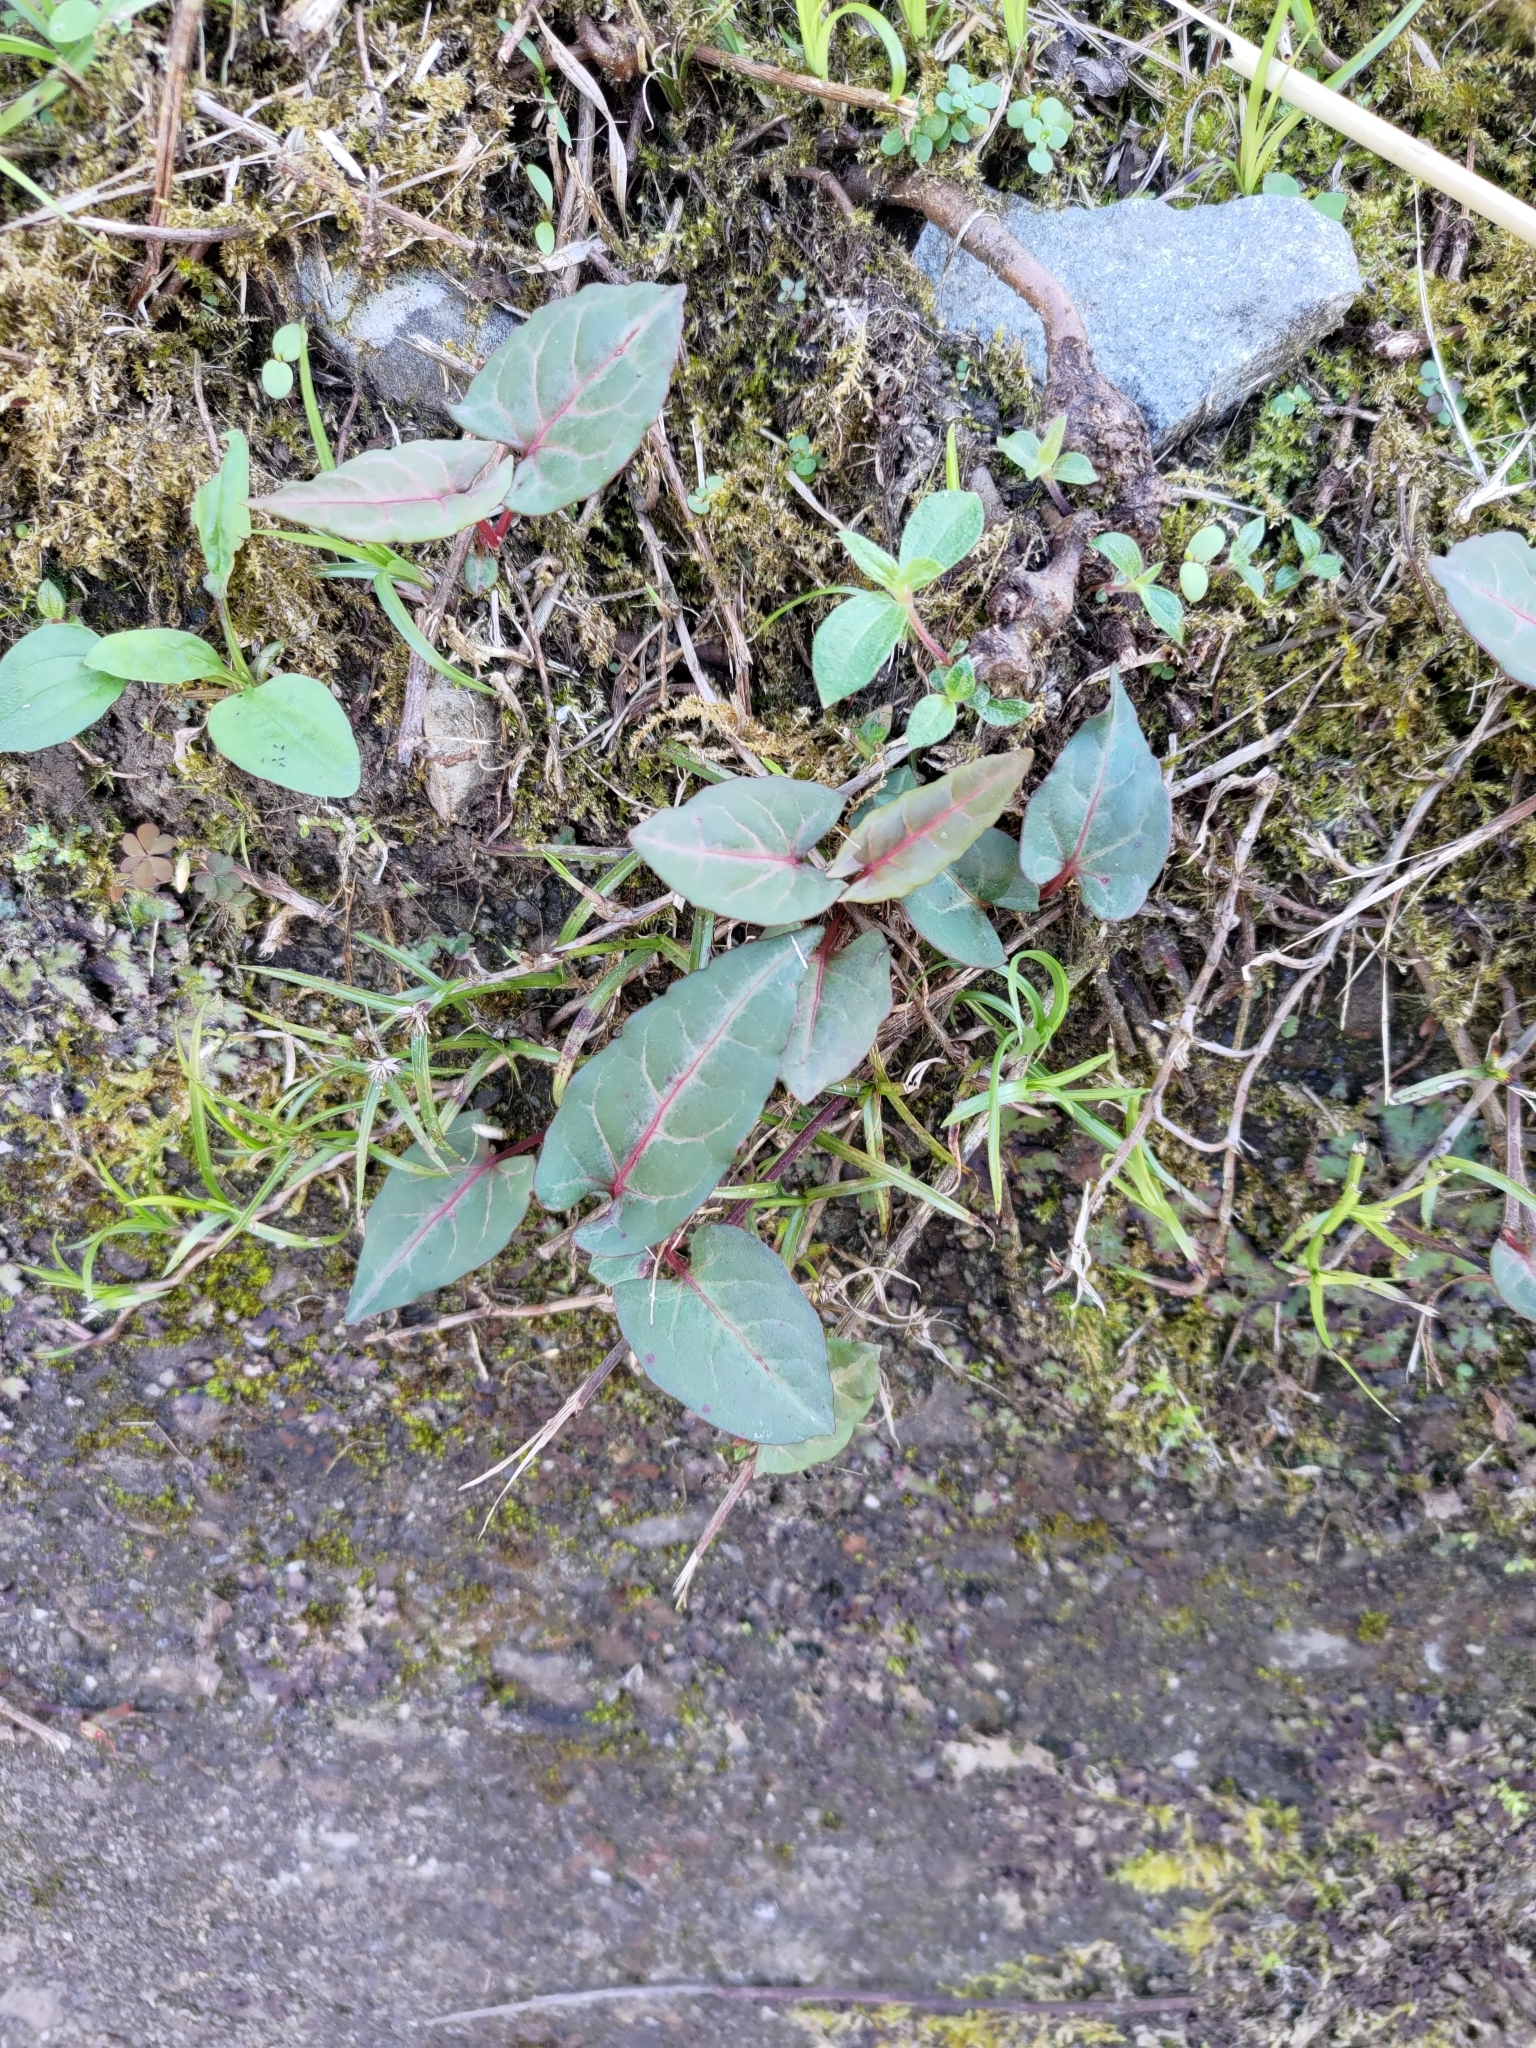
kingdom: Plantae
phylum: Tracheophyta
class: Magnoliopsida
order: Caryophyllales
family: Polygonaceae
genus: Reynoutria
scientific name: Reynoutria multiflora
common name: Chinese fleeceflower
